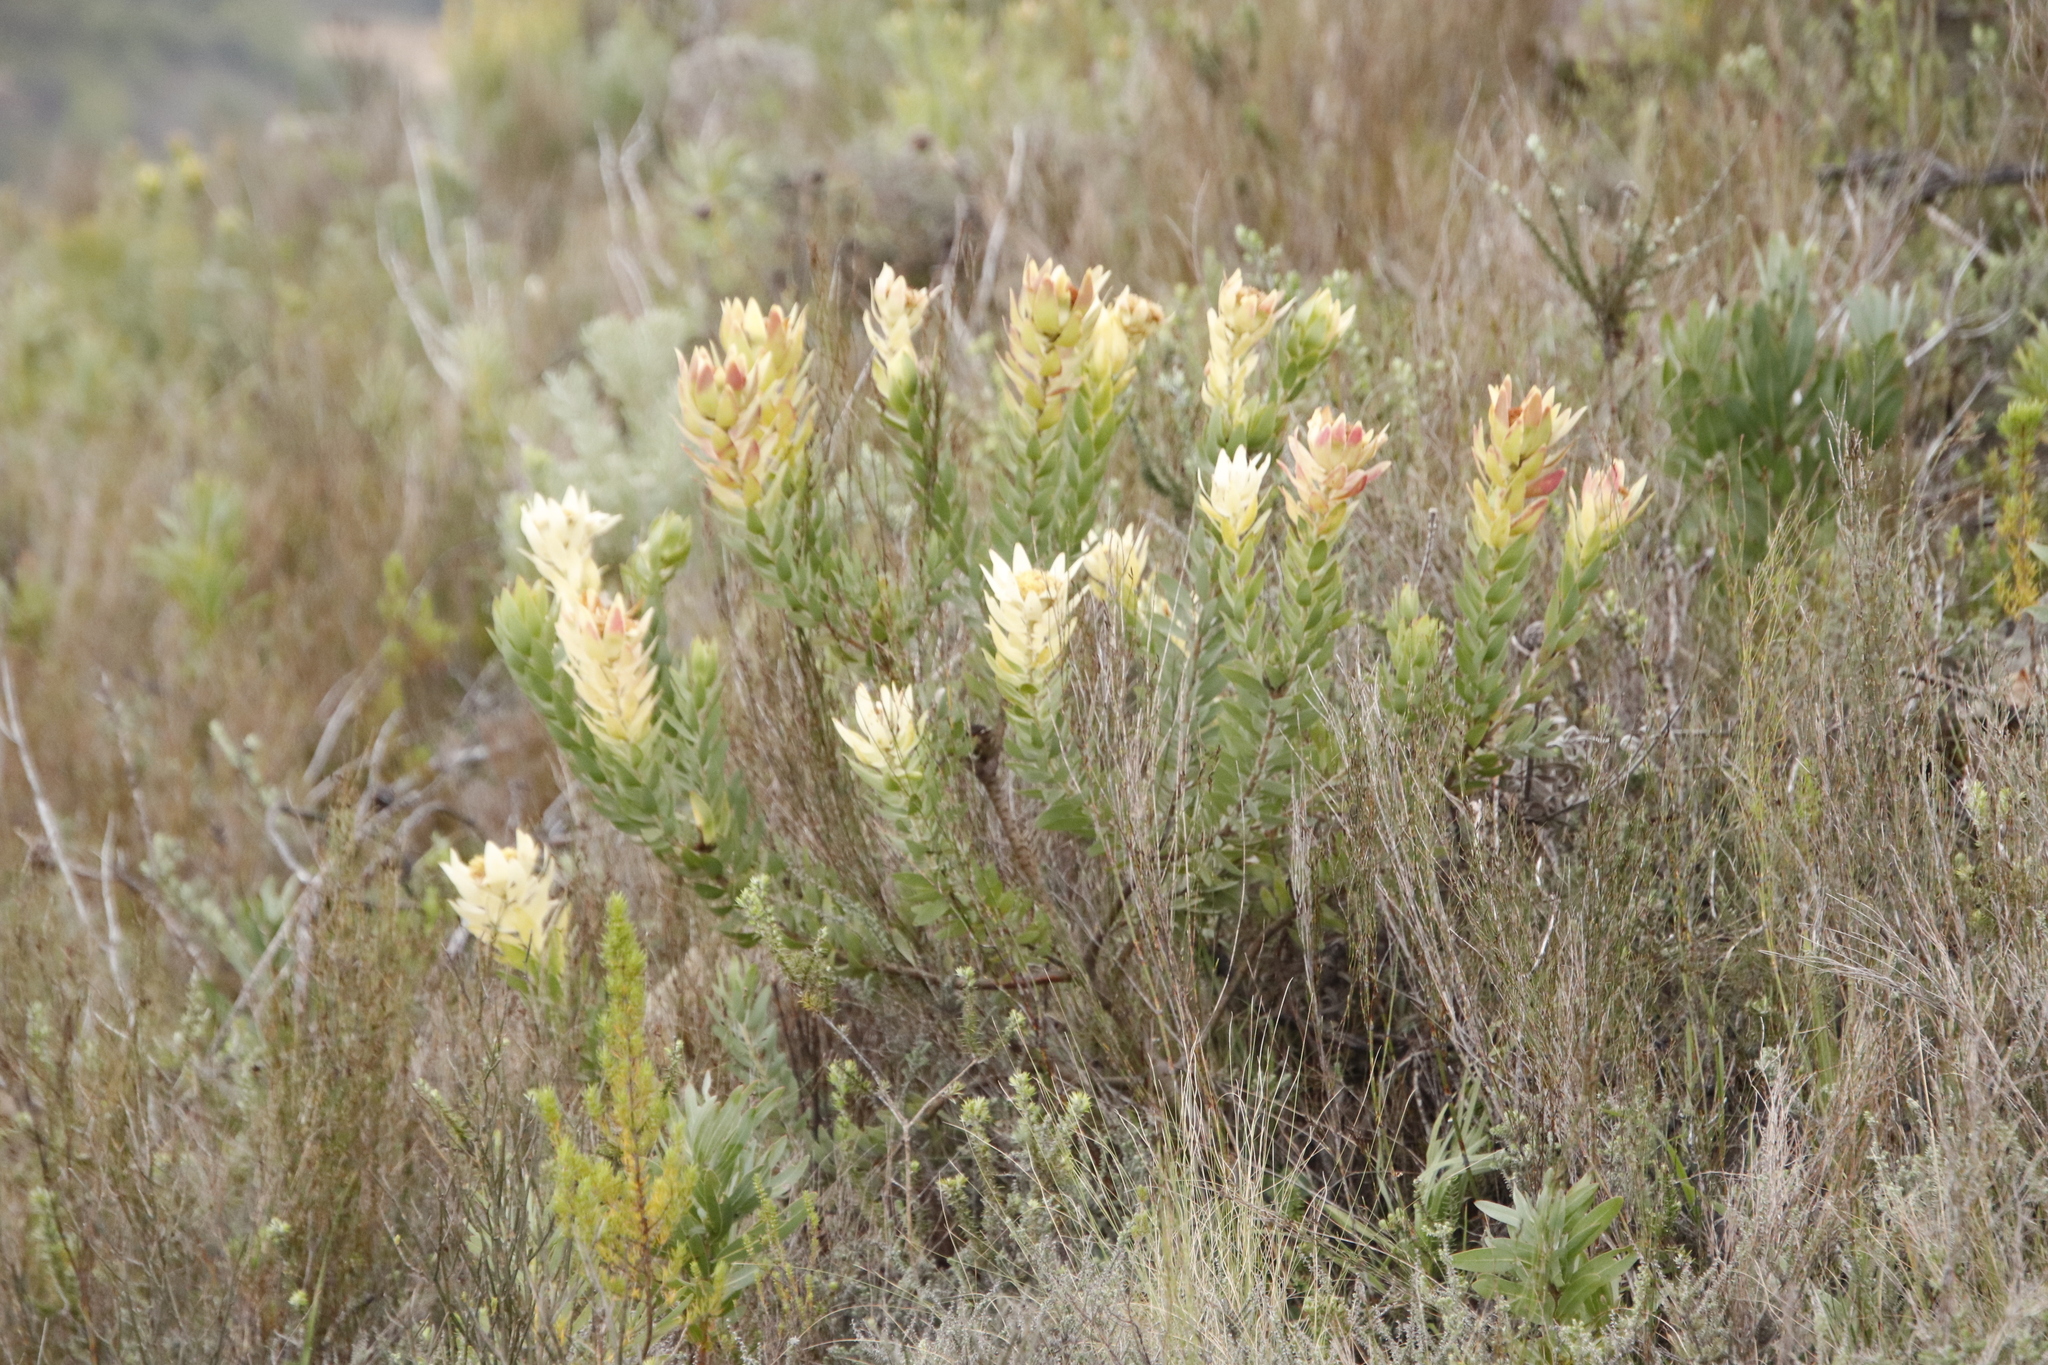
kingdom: Plantae
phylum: Tracheophyta
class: Magnoliopsida
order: Proteales
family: Proteaceae
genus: Leucadendron
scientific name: Leucadendron daphnoides
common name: Du toit's kloof conebush
